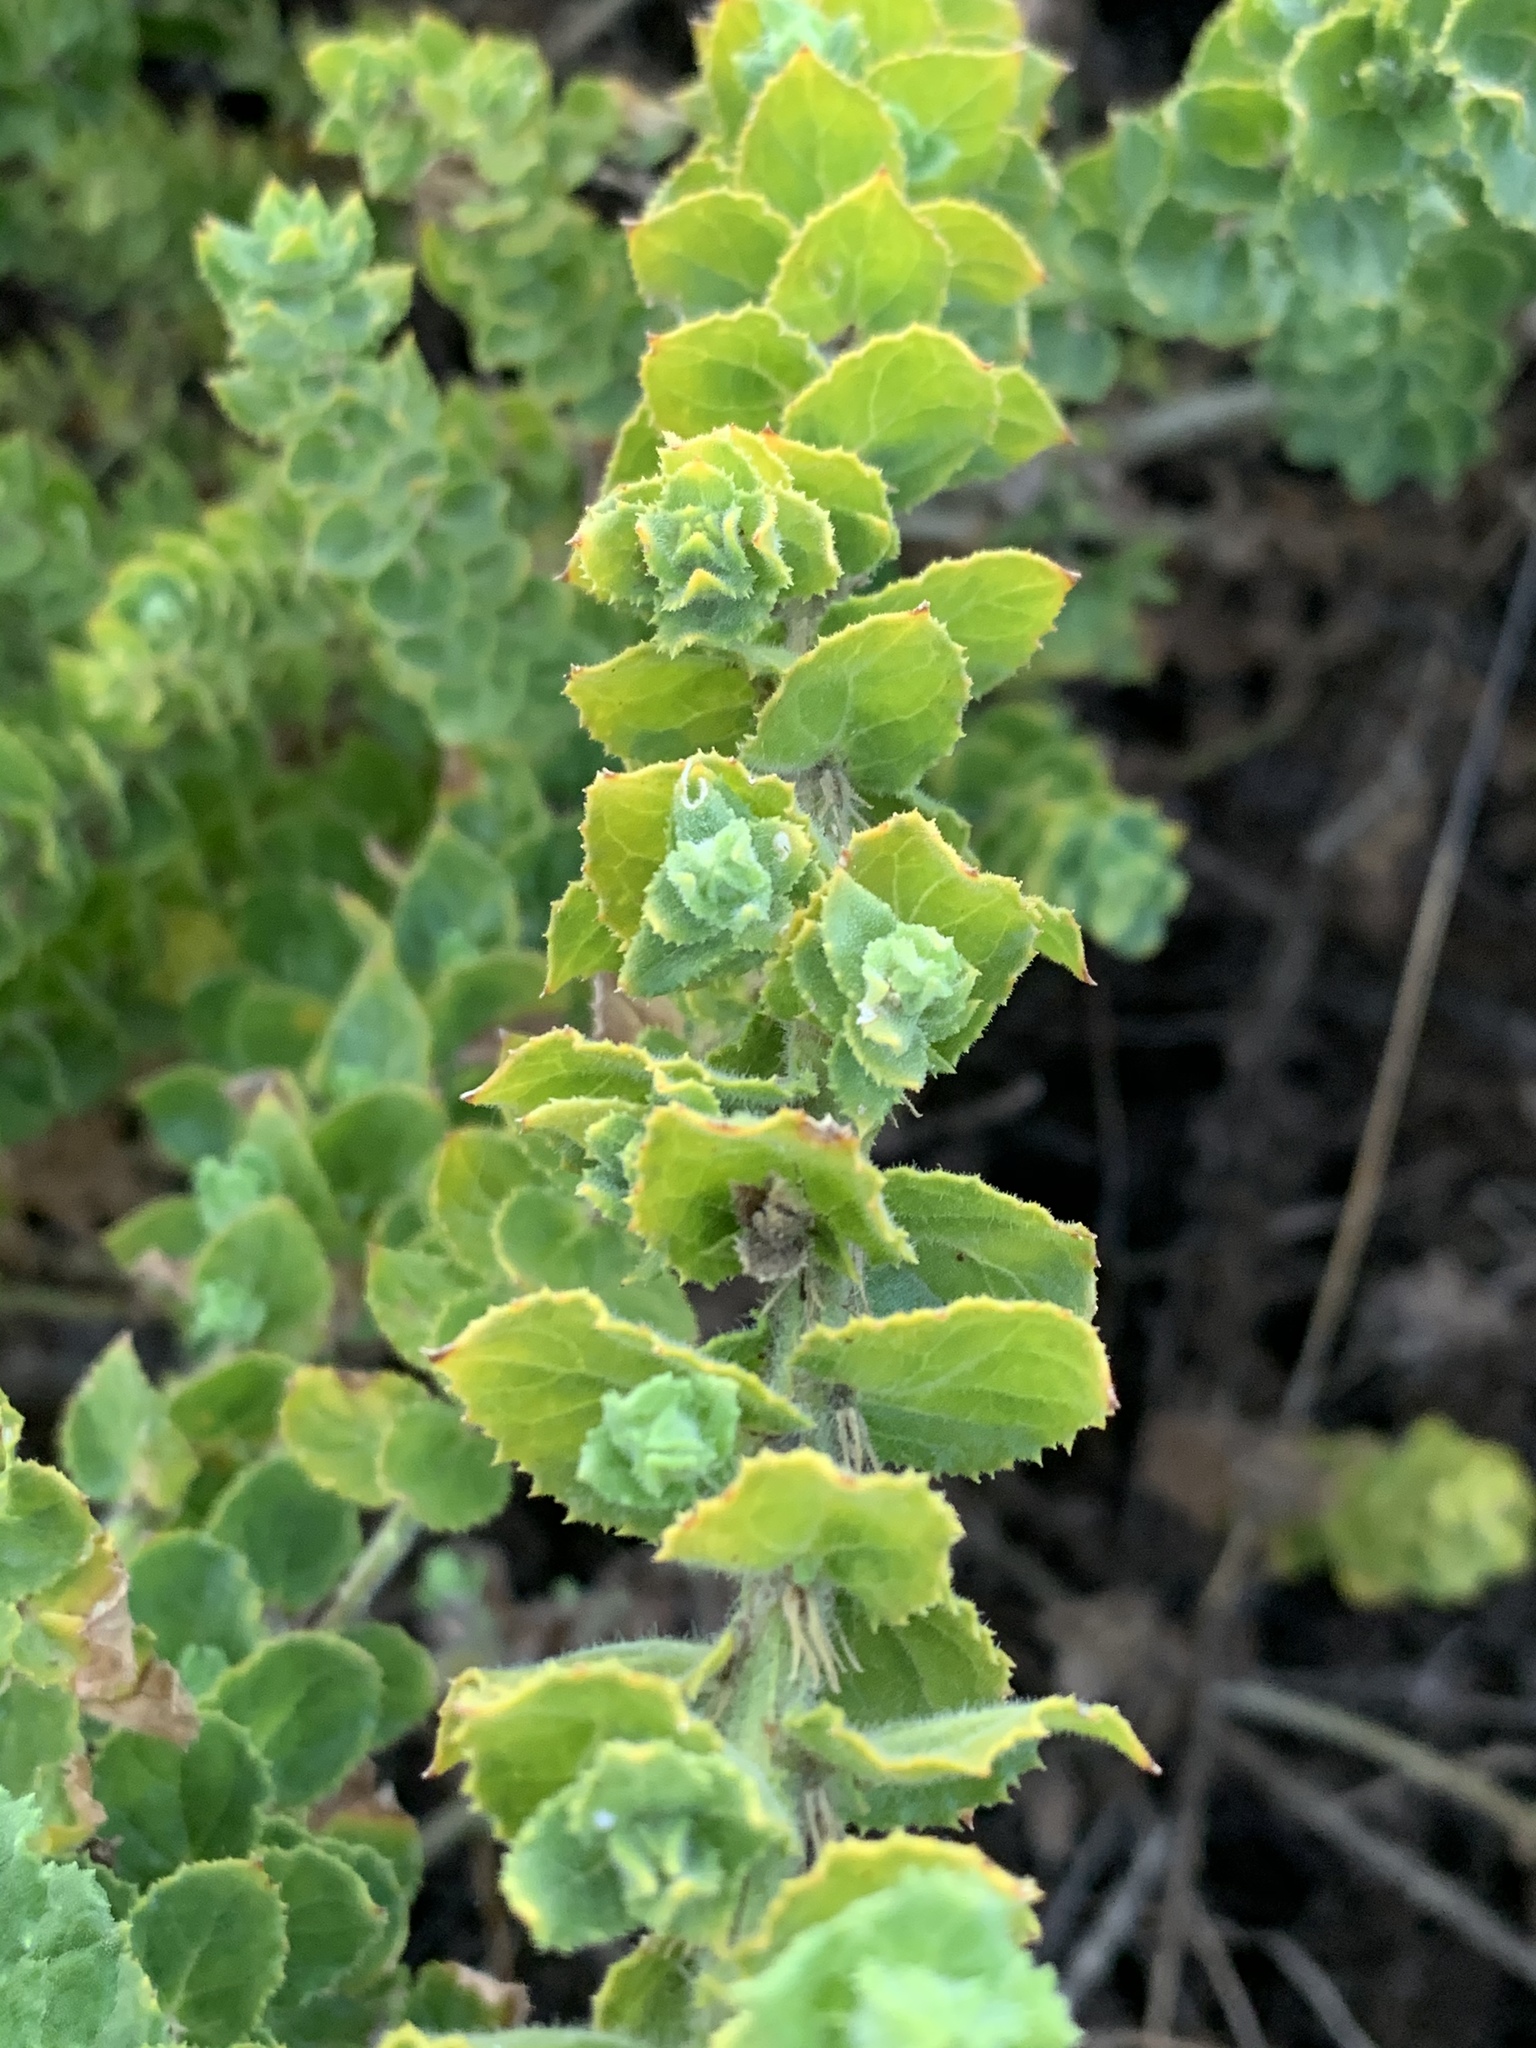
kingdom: Plantae
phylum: Tracheophyta
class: Magnoliopsida
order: Lamiales
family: Scrophulariaceae
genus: Oftia
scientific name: Oftia africana
